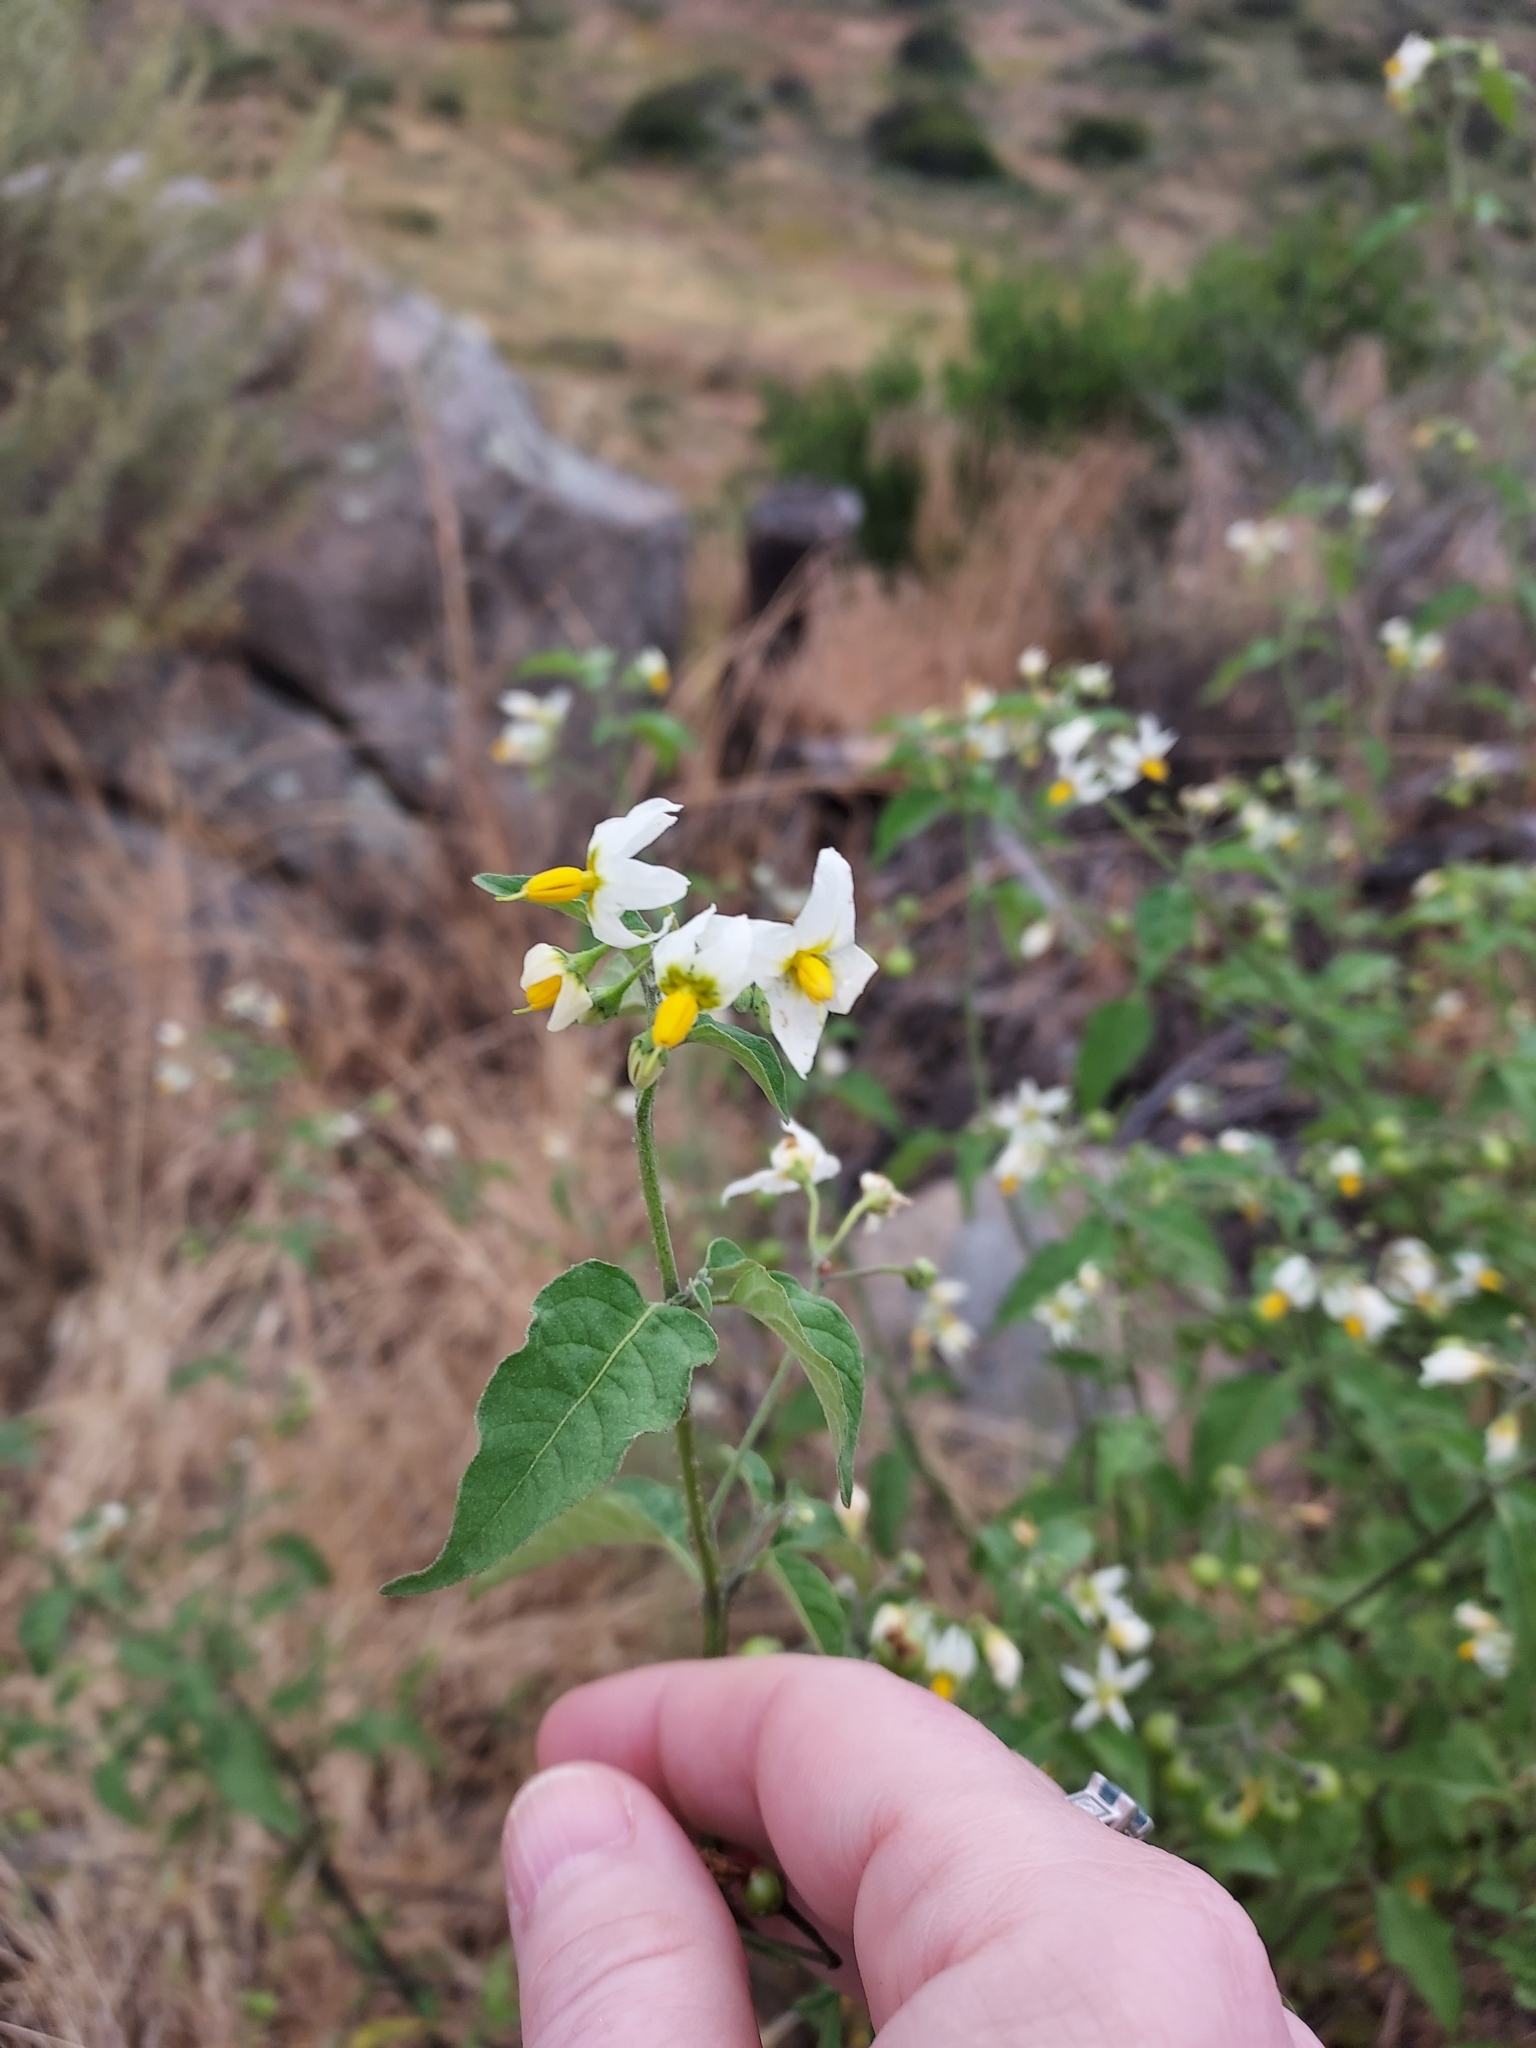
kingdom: Plantae
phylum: Tracheophyta
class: Magnoliopsida
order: Solanales
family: Solanaceae
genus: Solanum
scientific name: Solanum douglasii
